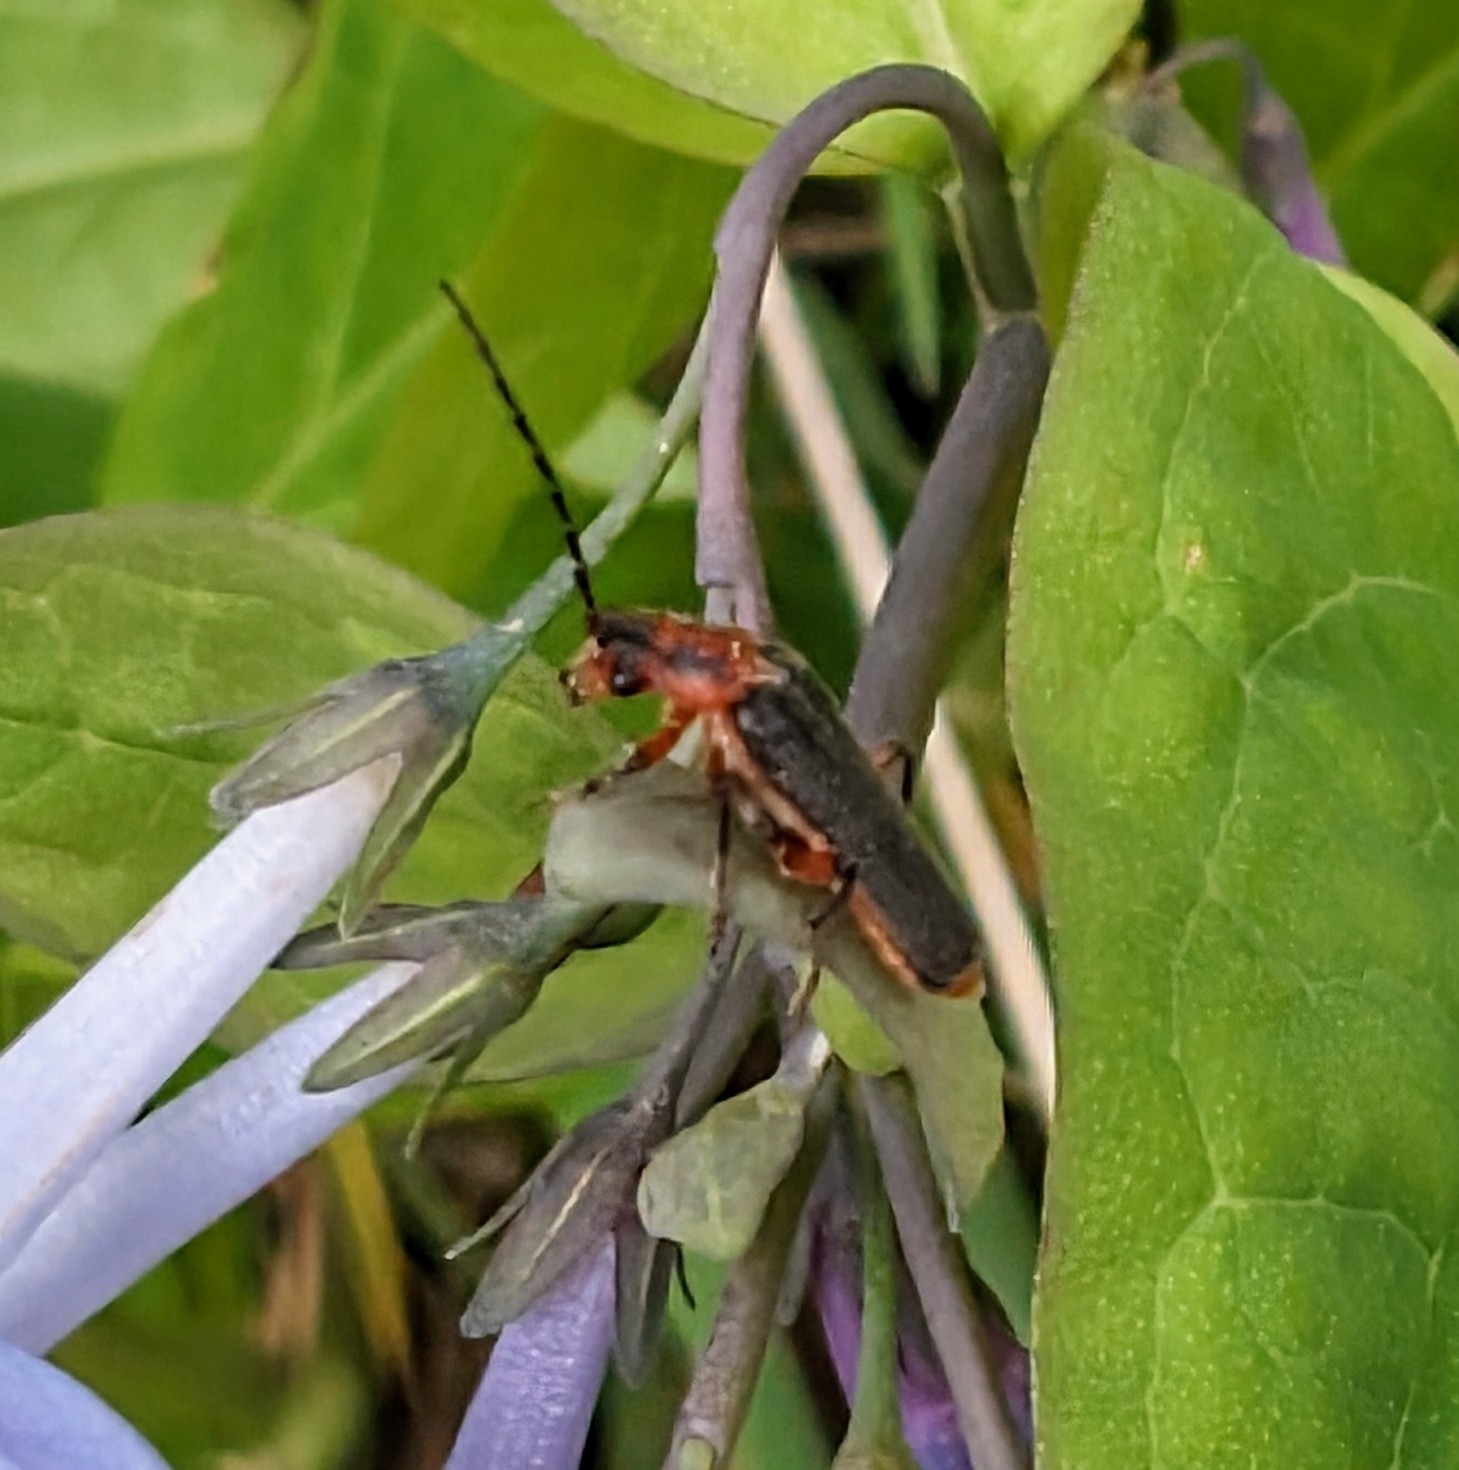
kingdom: Animalia
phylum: Arthropoda
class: Insecta
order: Coleoptera
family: Cantharidae
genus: Atalantycha
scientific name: Atalantycha bilineata
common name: Two-lined leatherwing
